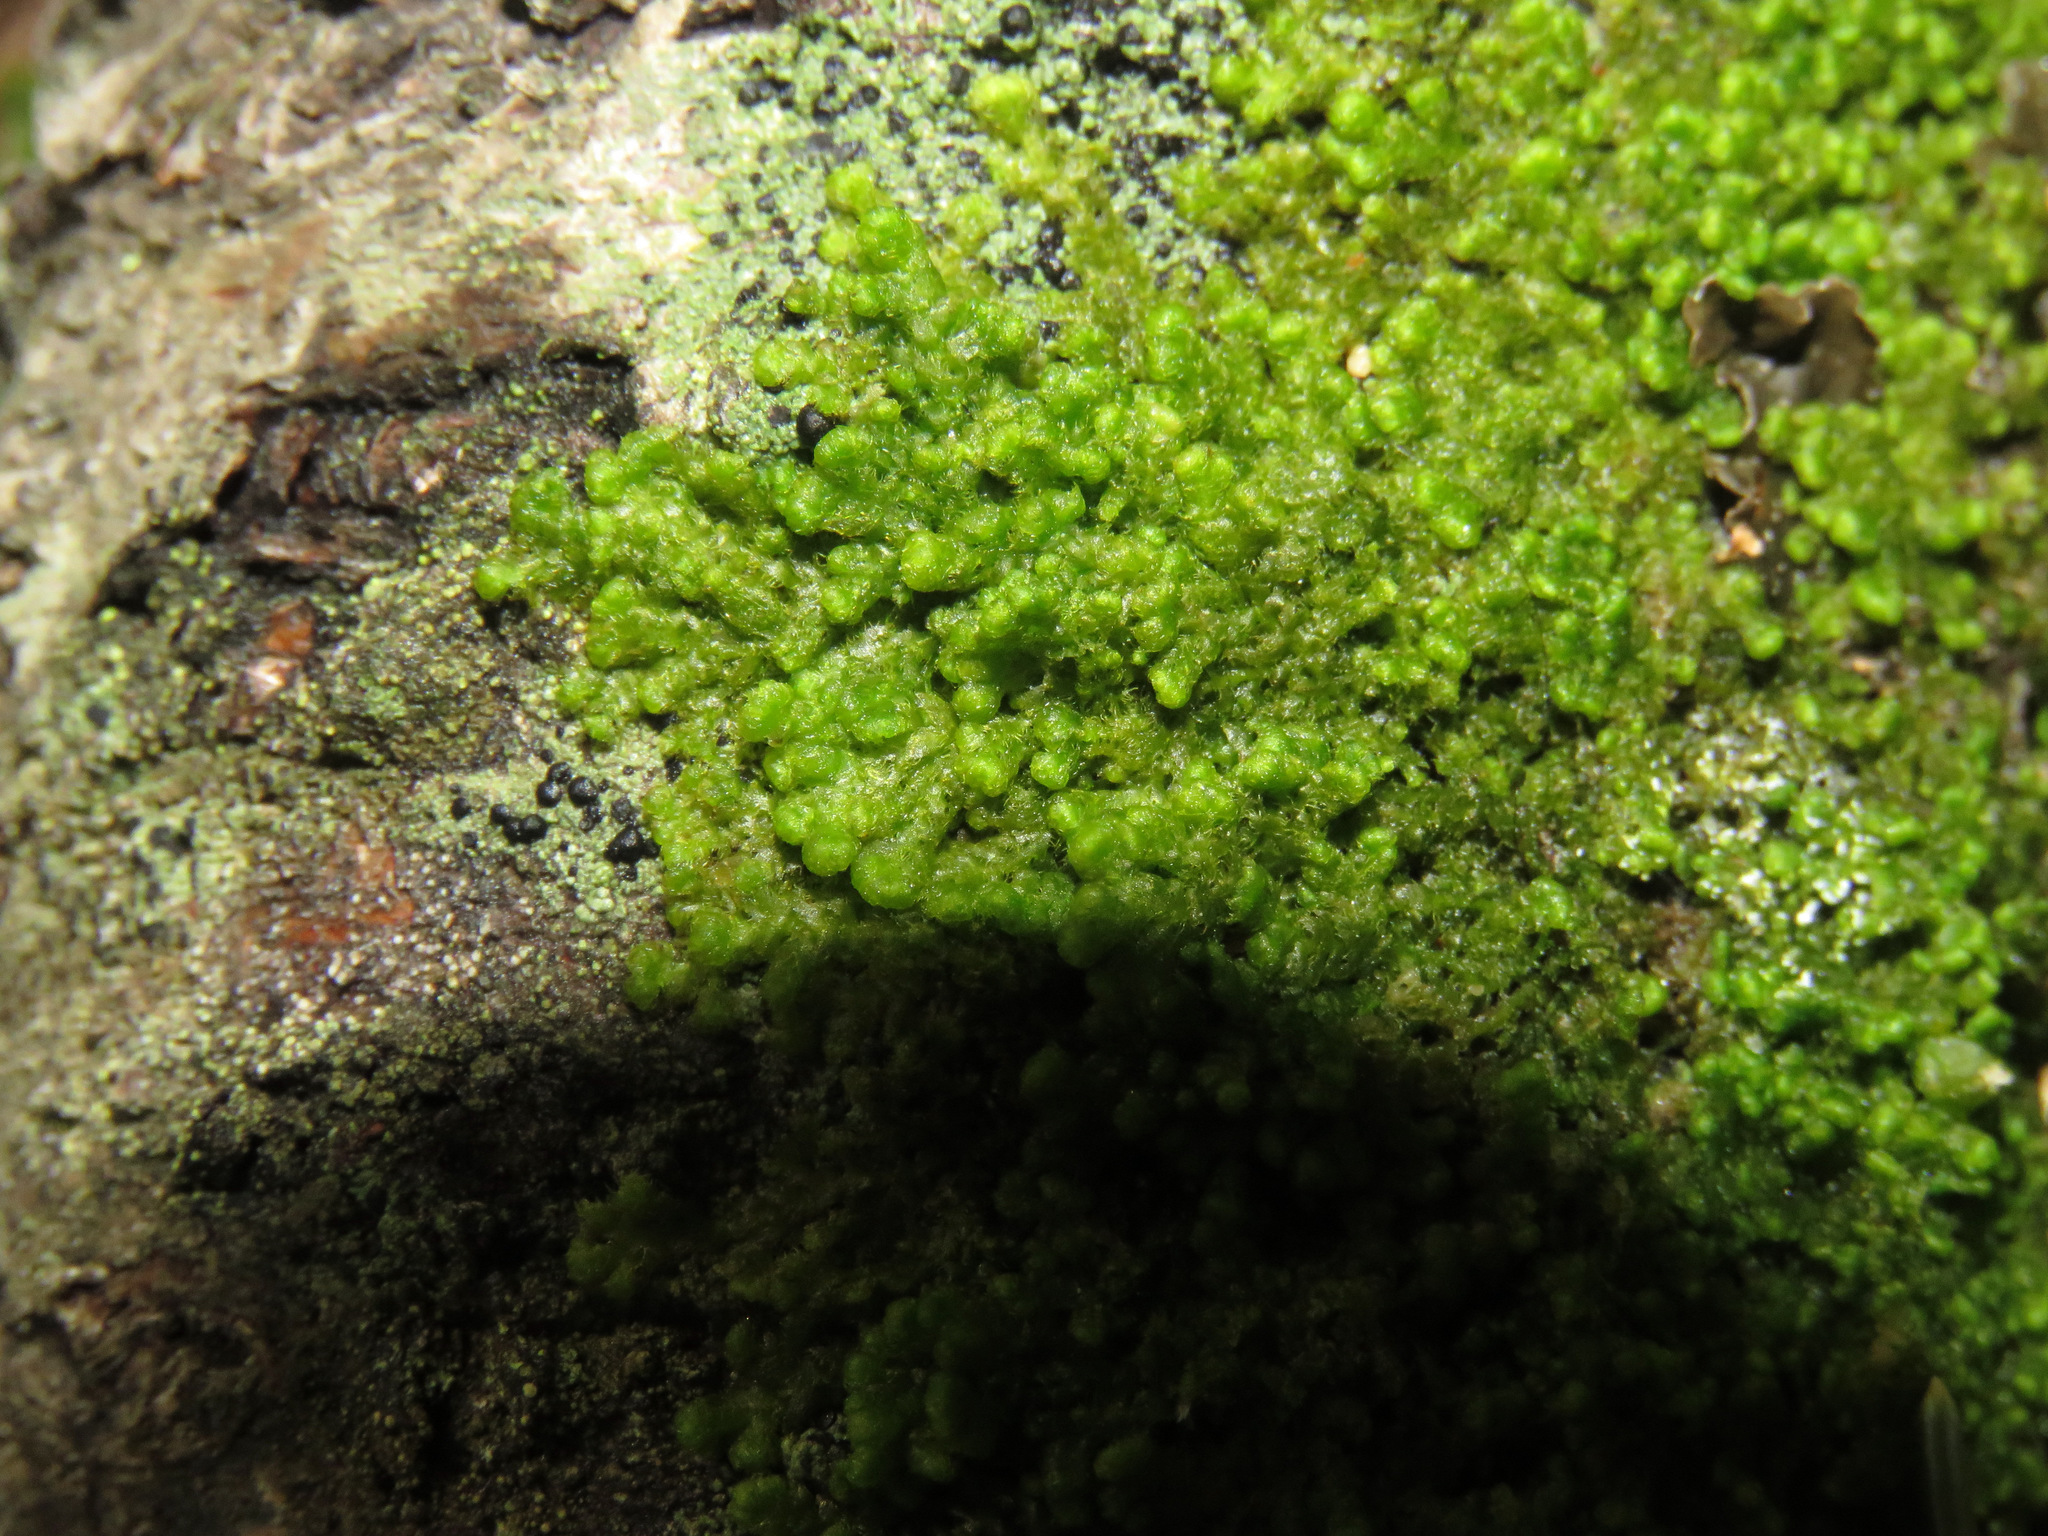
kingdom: Plantae
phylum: Marchantiophyta
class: Jungermanniopsida
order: Ptilidiales
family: Ptilidiaceae
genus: Ptilidium
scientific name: Ptilidium pulcherrimum
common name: Tree fringewort
